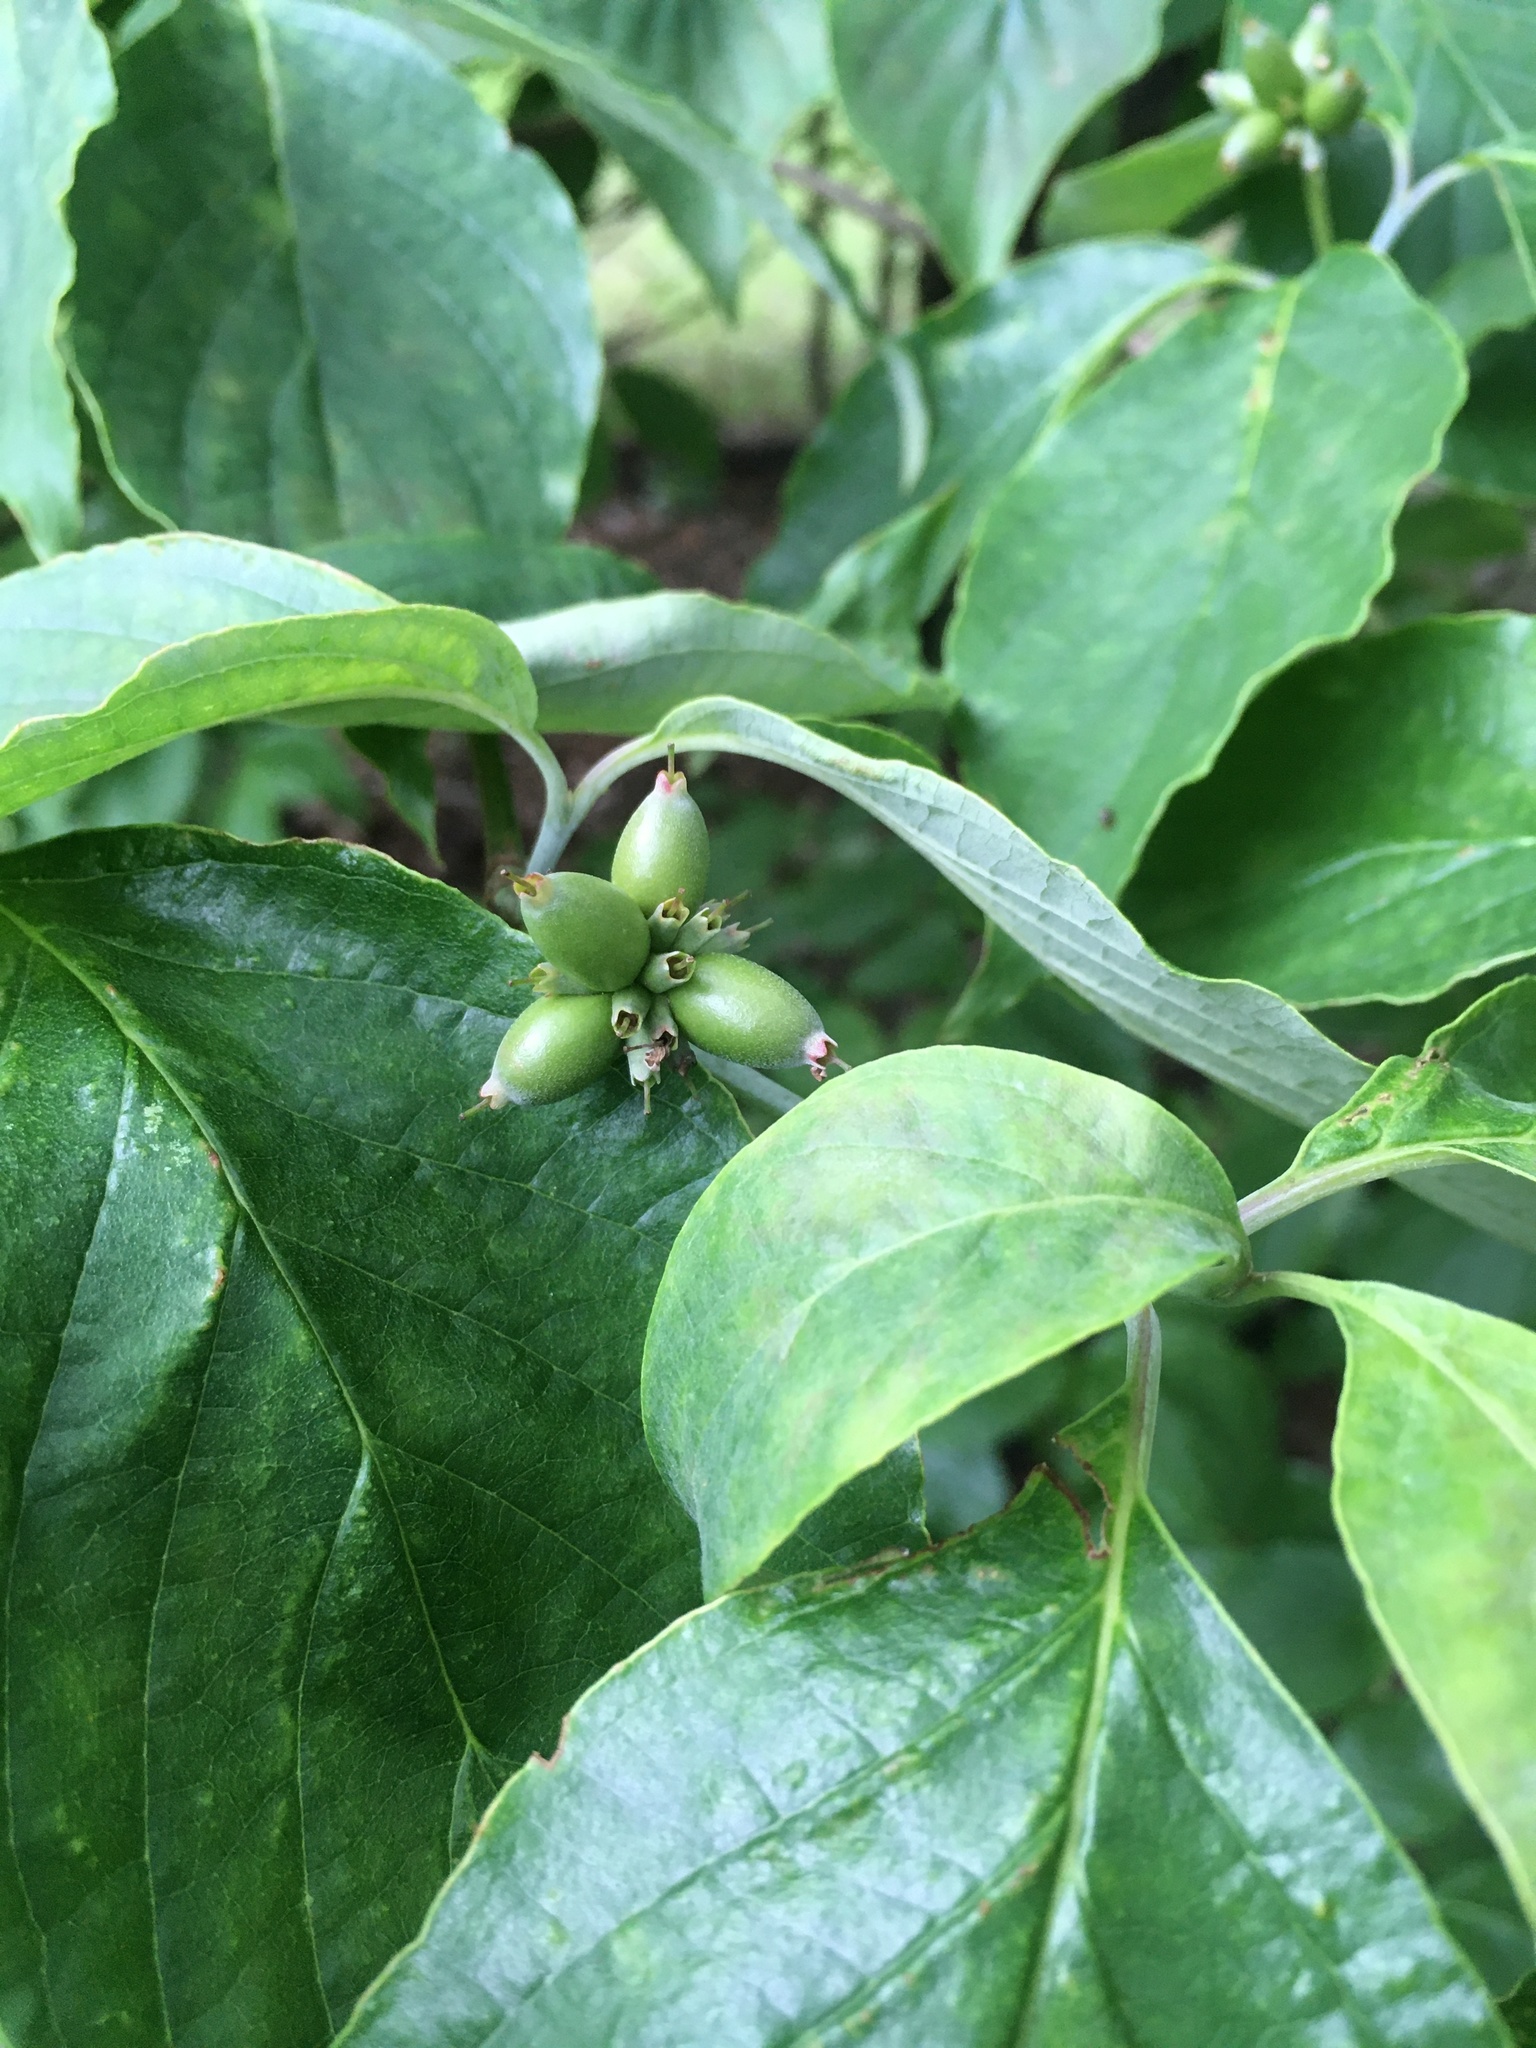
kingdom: Plantae
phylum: Tracheophyta
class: Magnoliopsida
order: Cornales
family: Cornaceae
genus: Cornus
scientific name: Cornus florida
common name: Flowering dogwood
